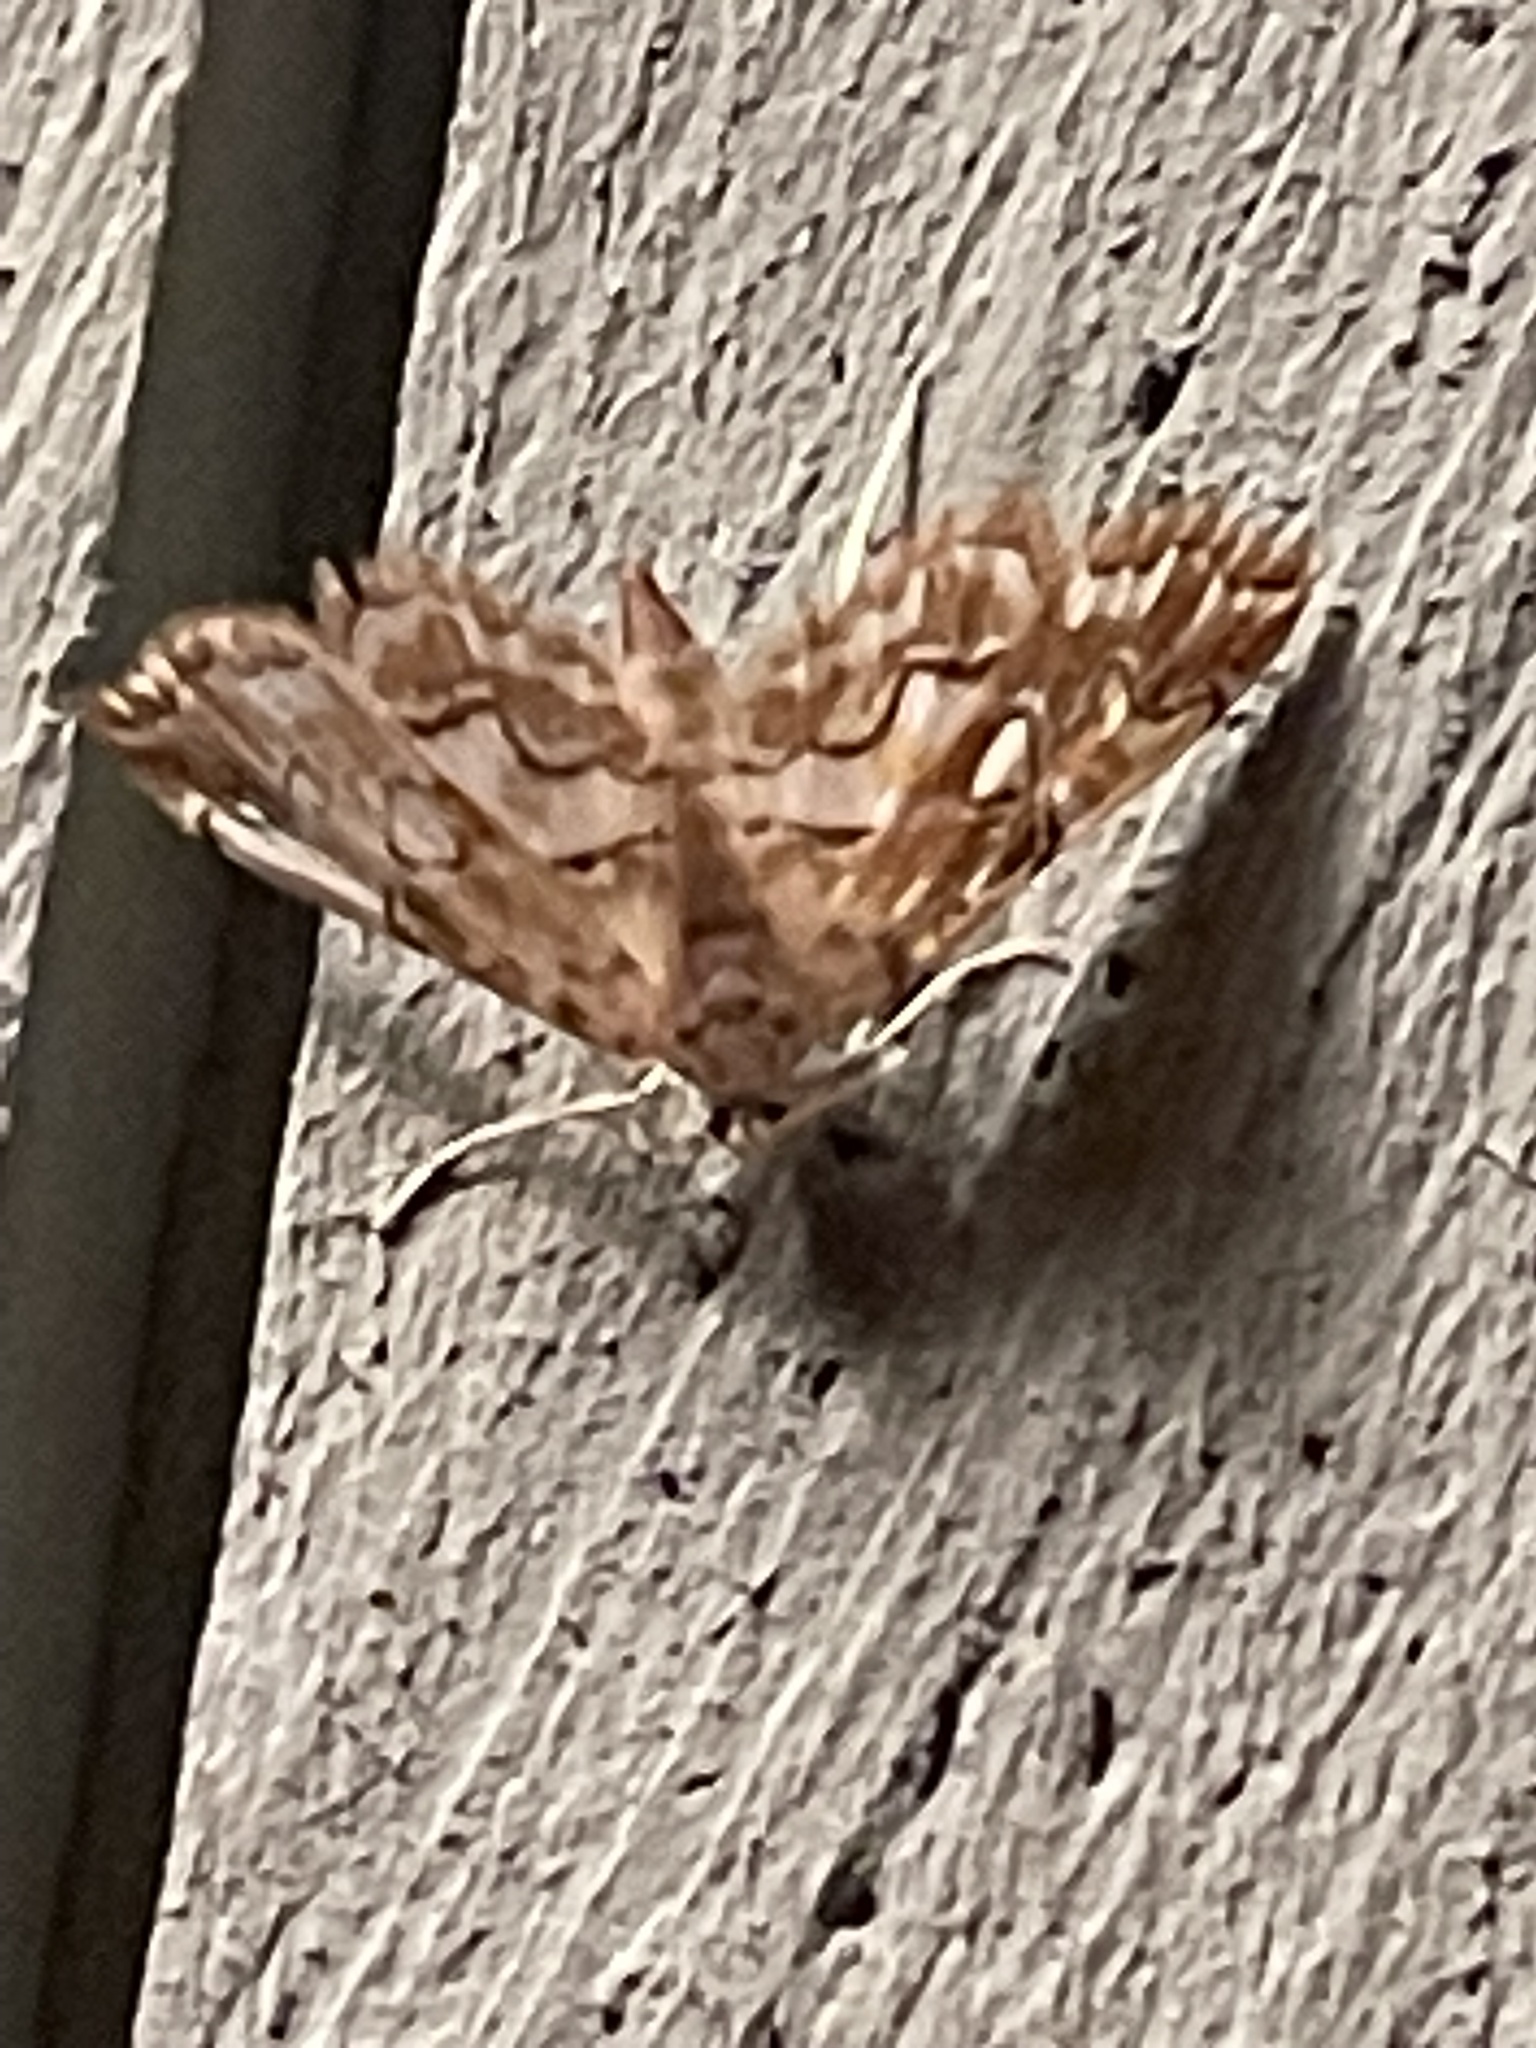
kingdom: Animalia
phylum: Arthropoda
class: Insecta
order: Lepidoptera
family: Crambidae
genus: Elophila
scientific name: Elophila icciusalis
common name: Pondside pyralid moth
